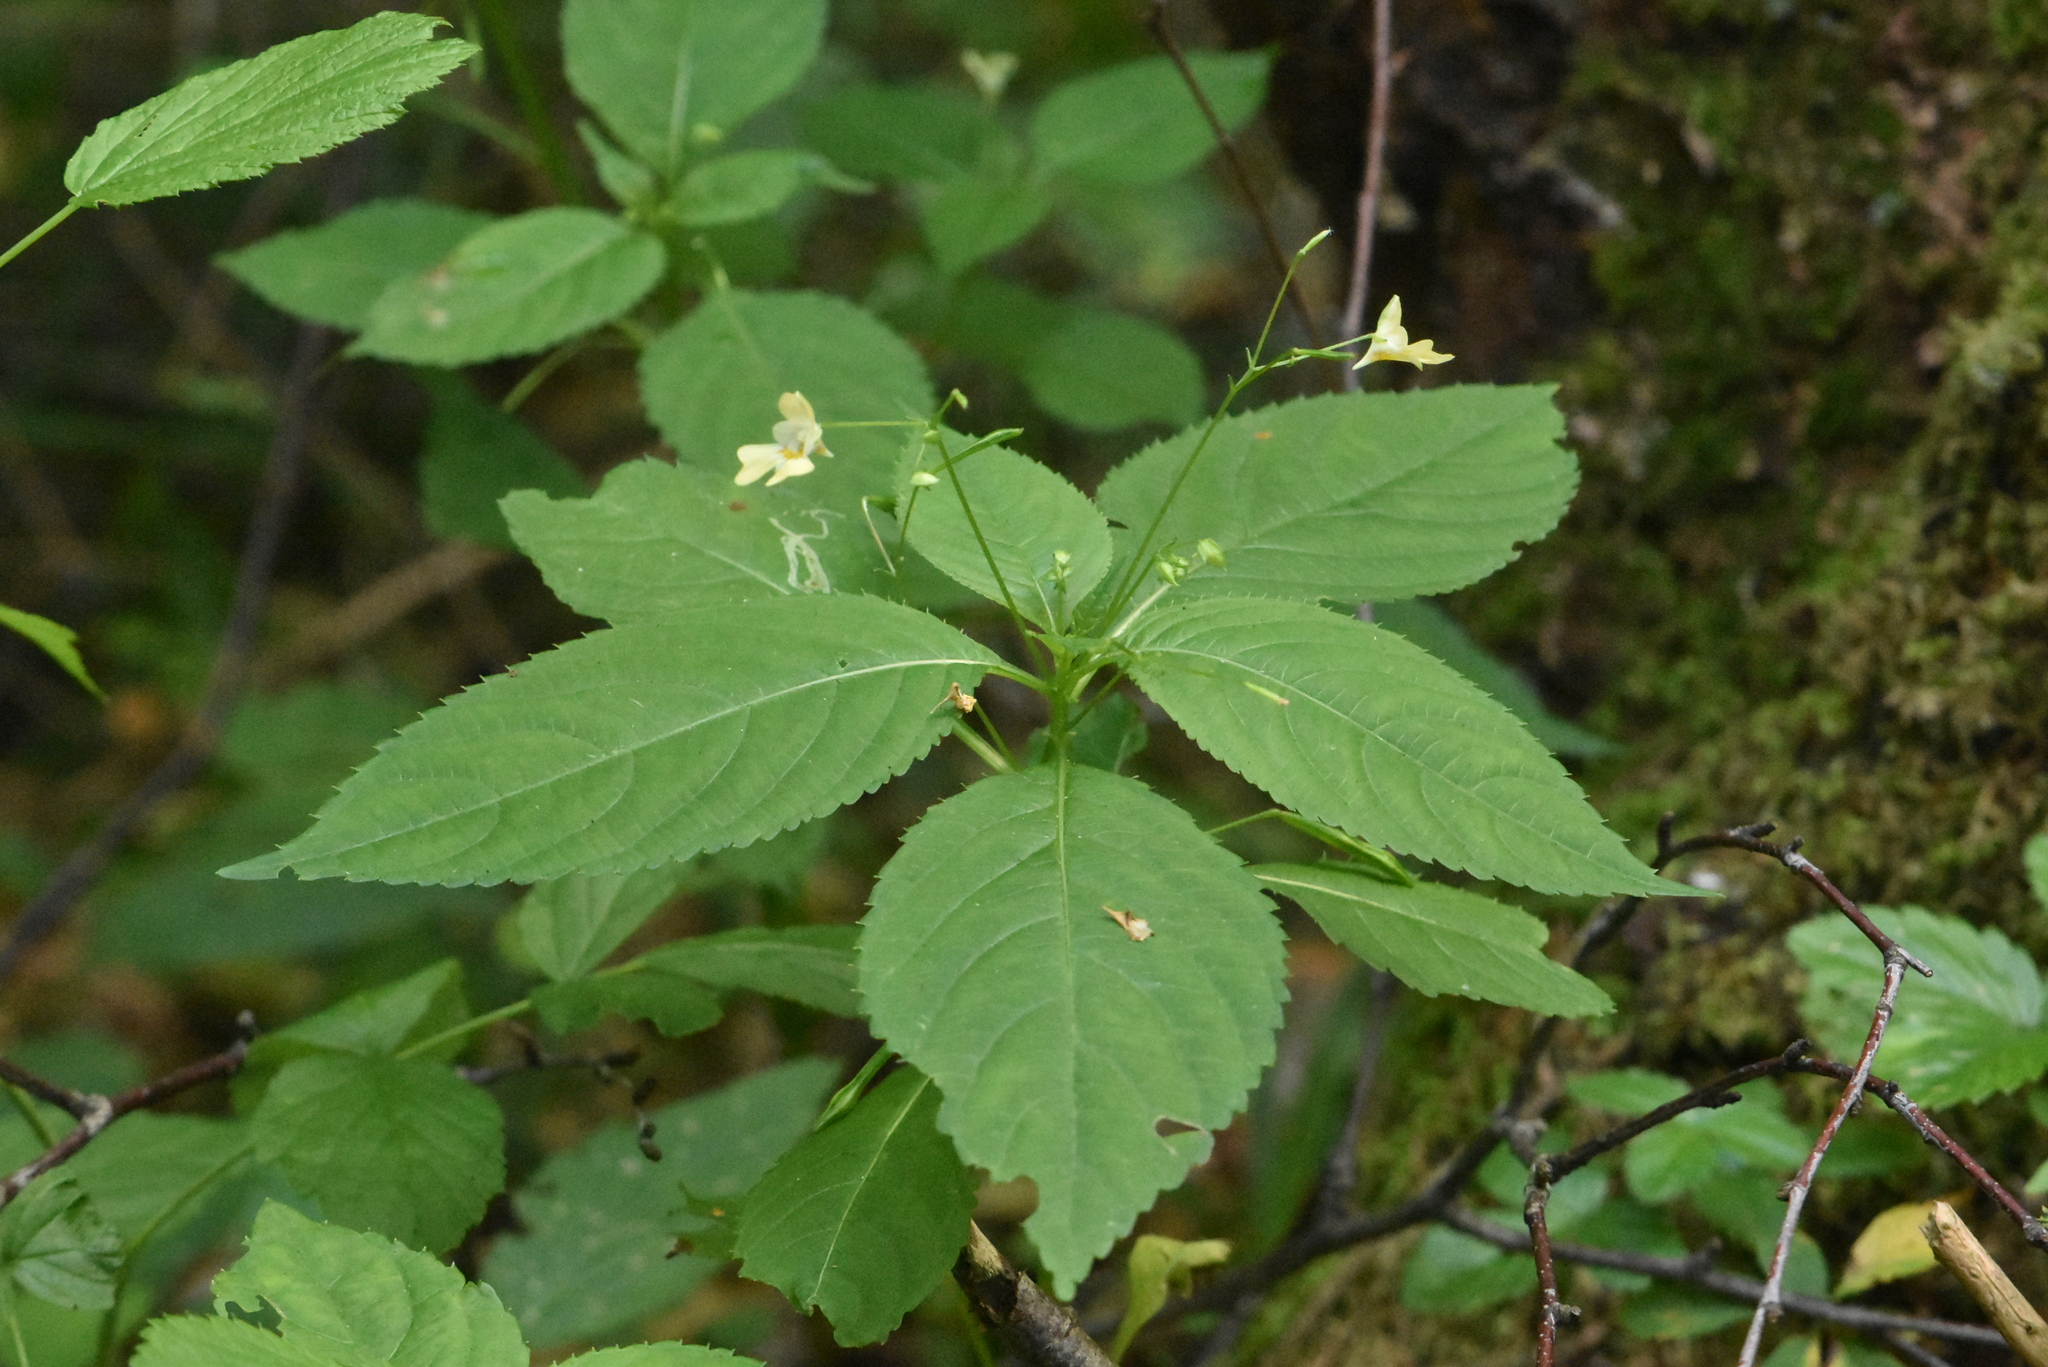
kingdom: Plantae
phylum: Tracheophyta
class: Magnoliopsida
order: Ericales
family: Balsaminaceae
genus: Impatiens
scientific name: Impatiens parviflora
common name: Small balsam
